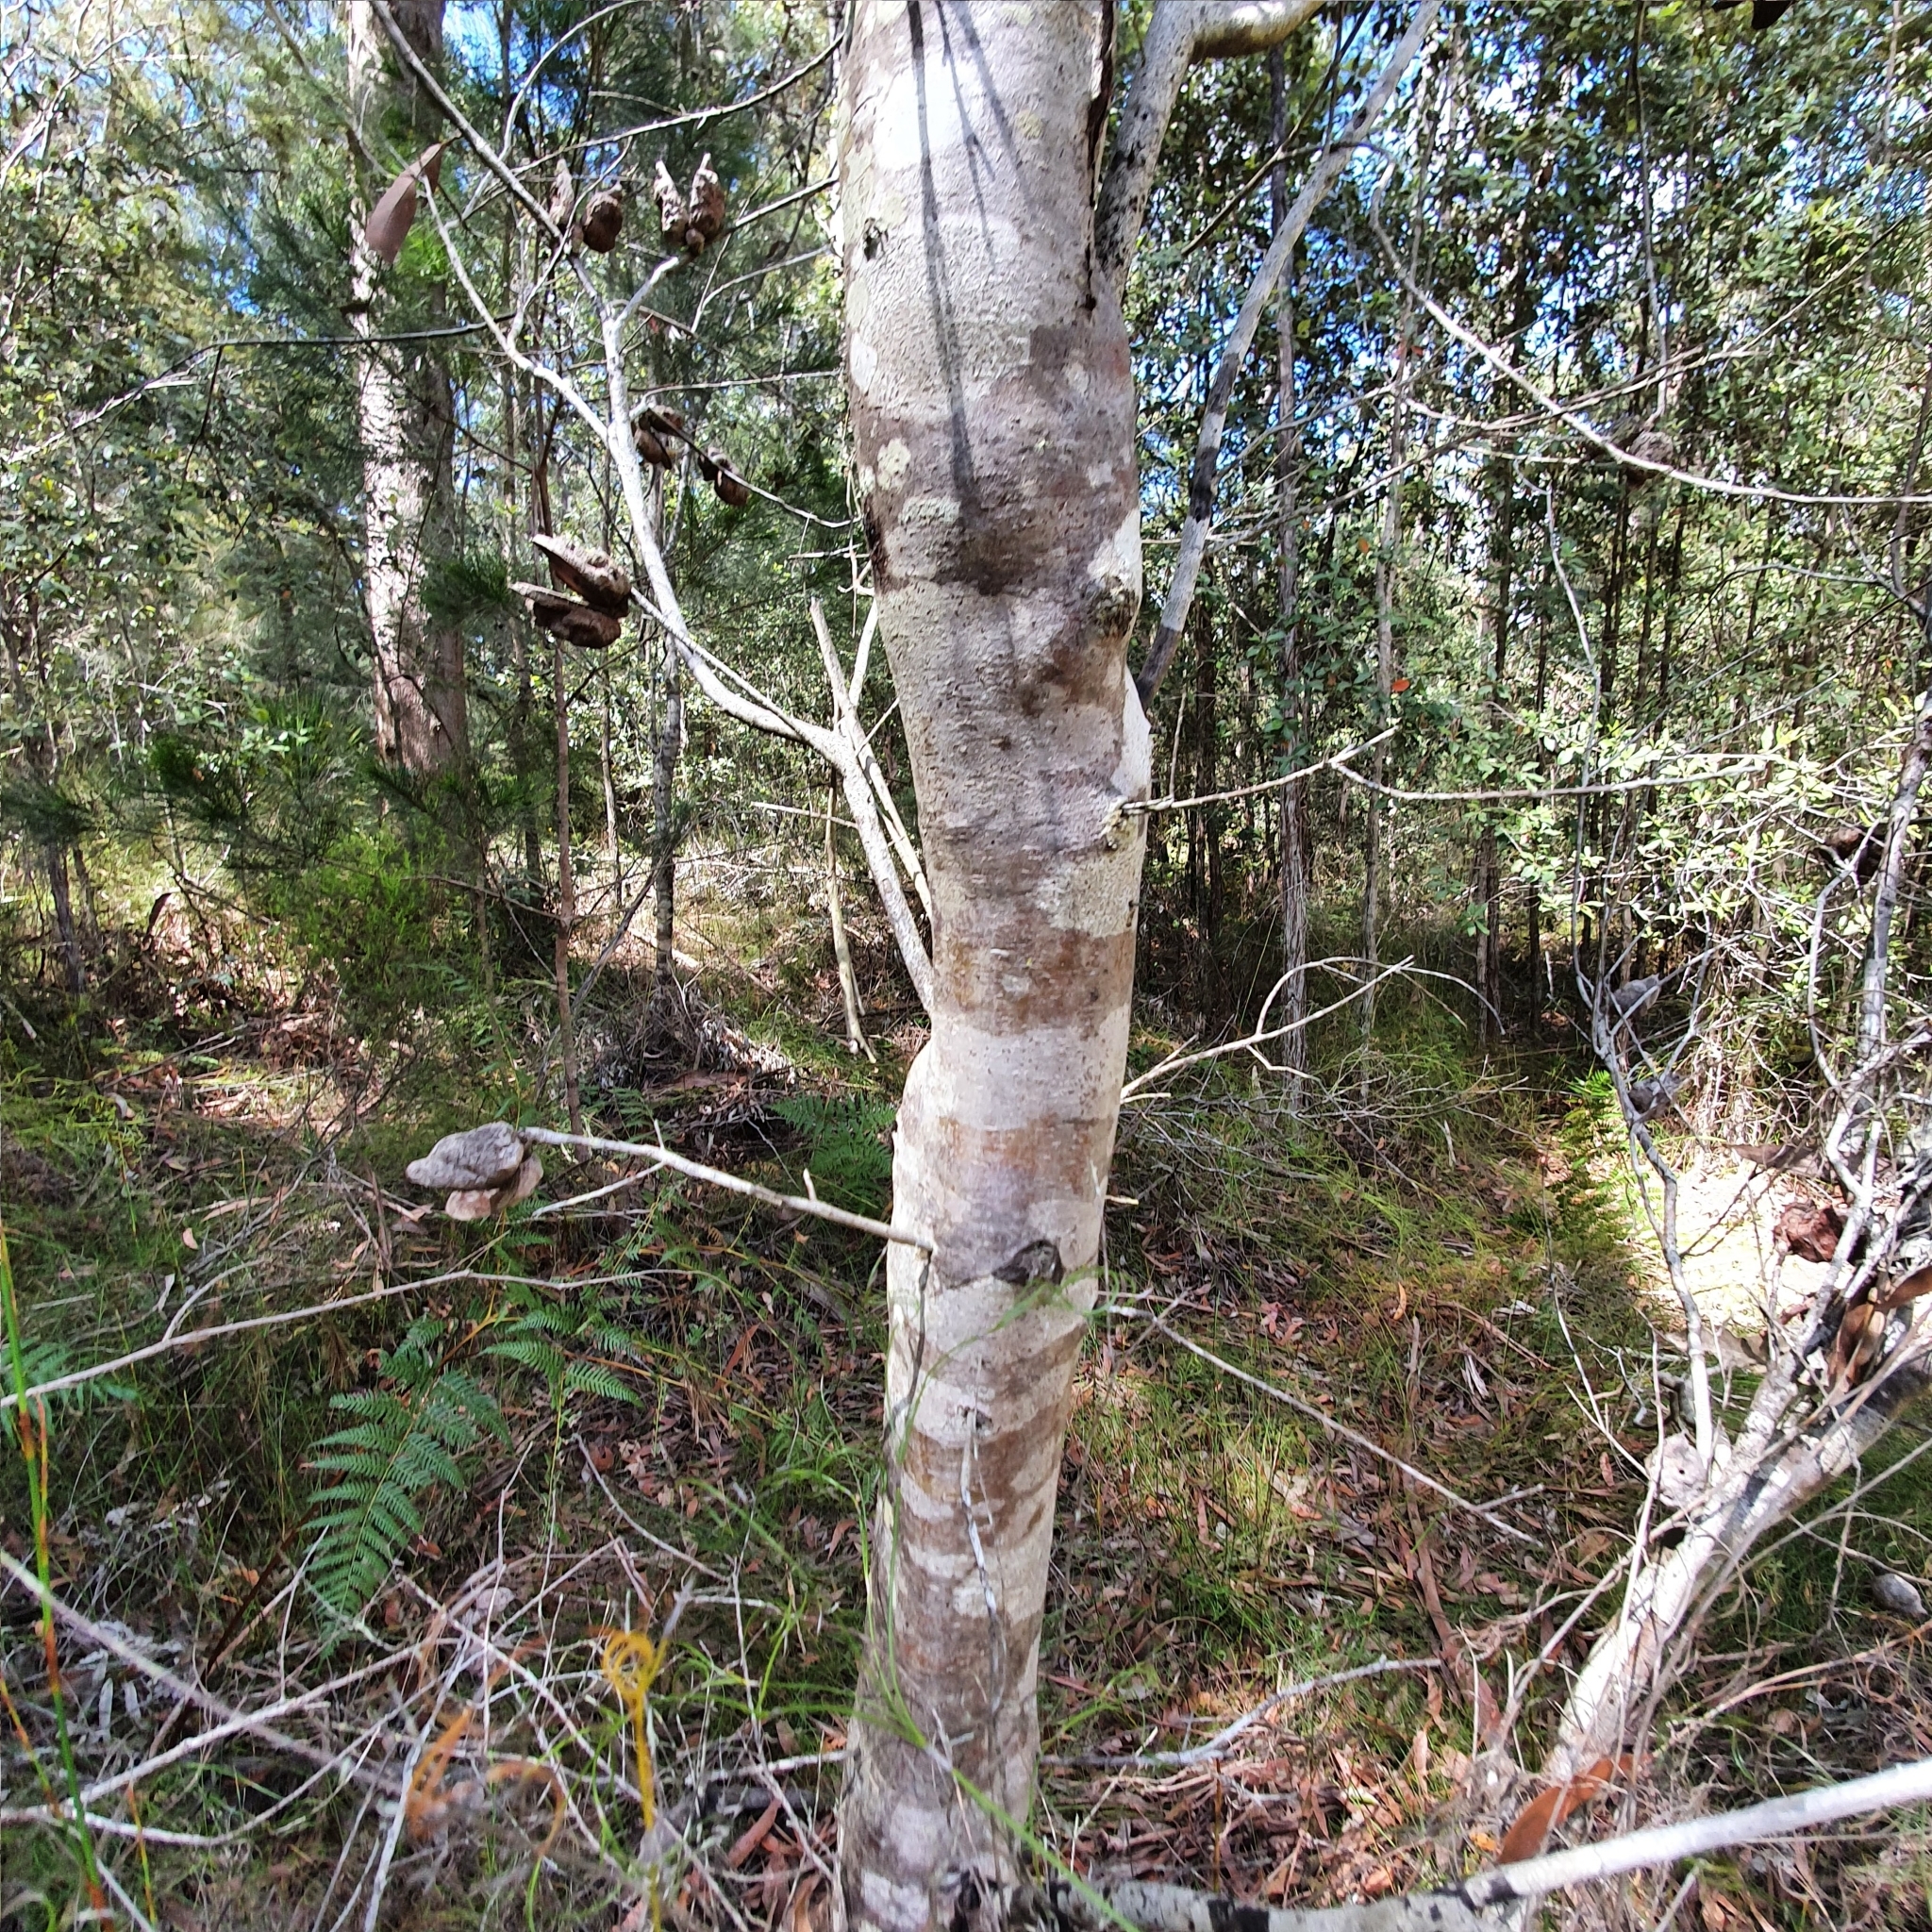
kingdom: Plantae
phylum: Tracheophyta
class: Magnoliopsida
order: Proteales
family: Proteaceae
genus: Hakea
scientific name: Hakea sericea
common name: Needle bush
